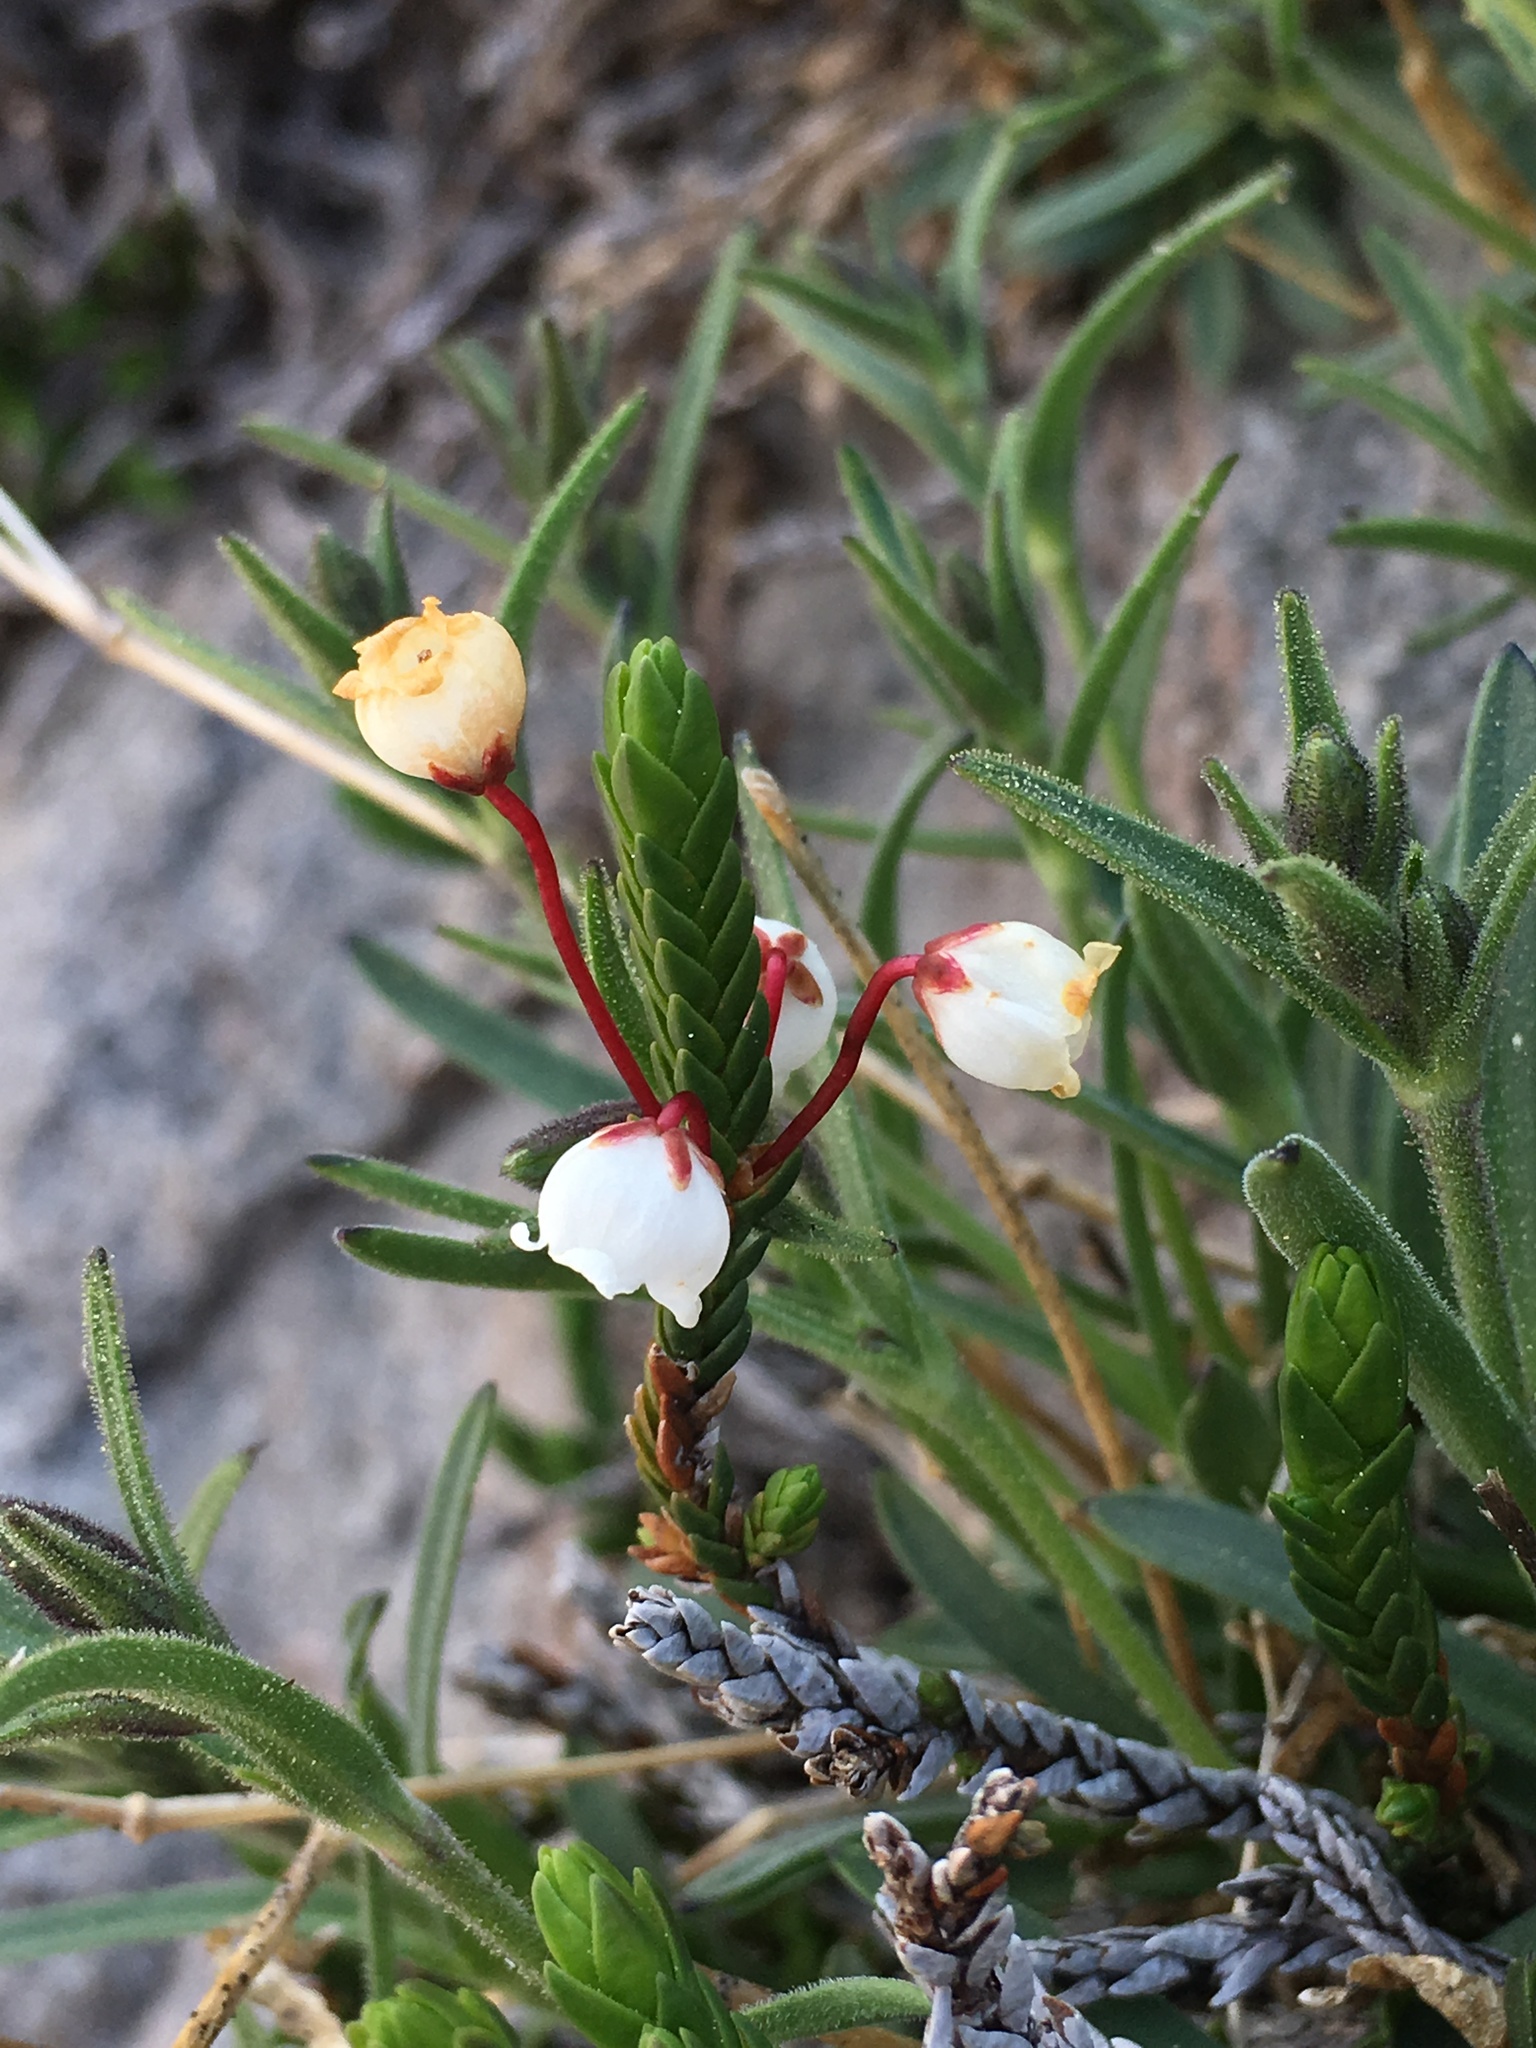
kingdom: Plantae
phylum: Tracheophyta
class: Magnoliopsida
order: Ericales
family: Ericaceae
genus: Cassiope
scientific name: Cassiope mertensiana
